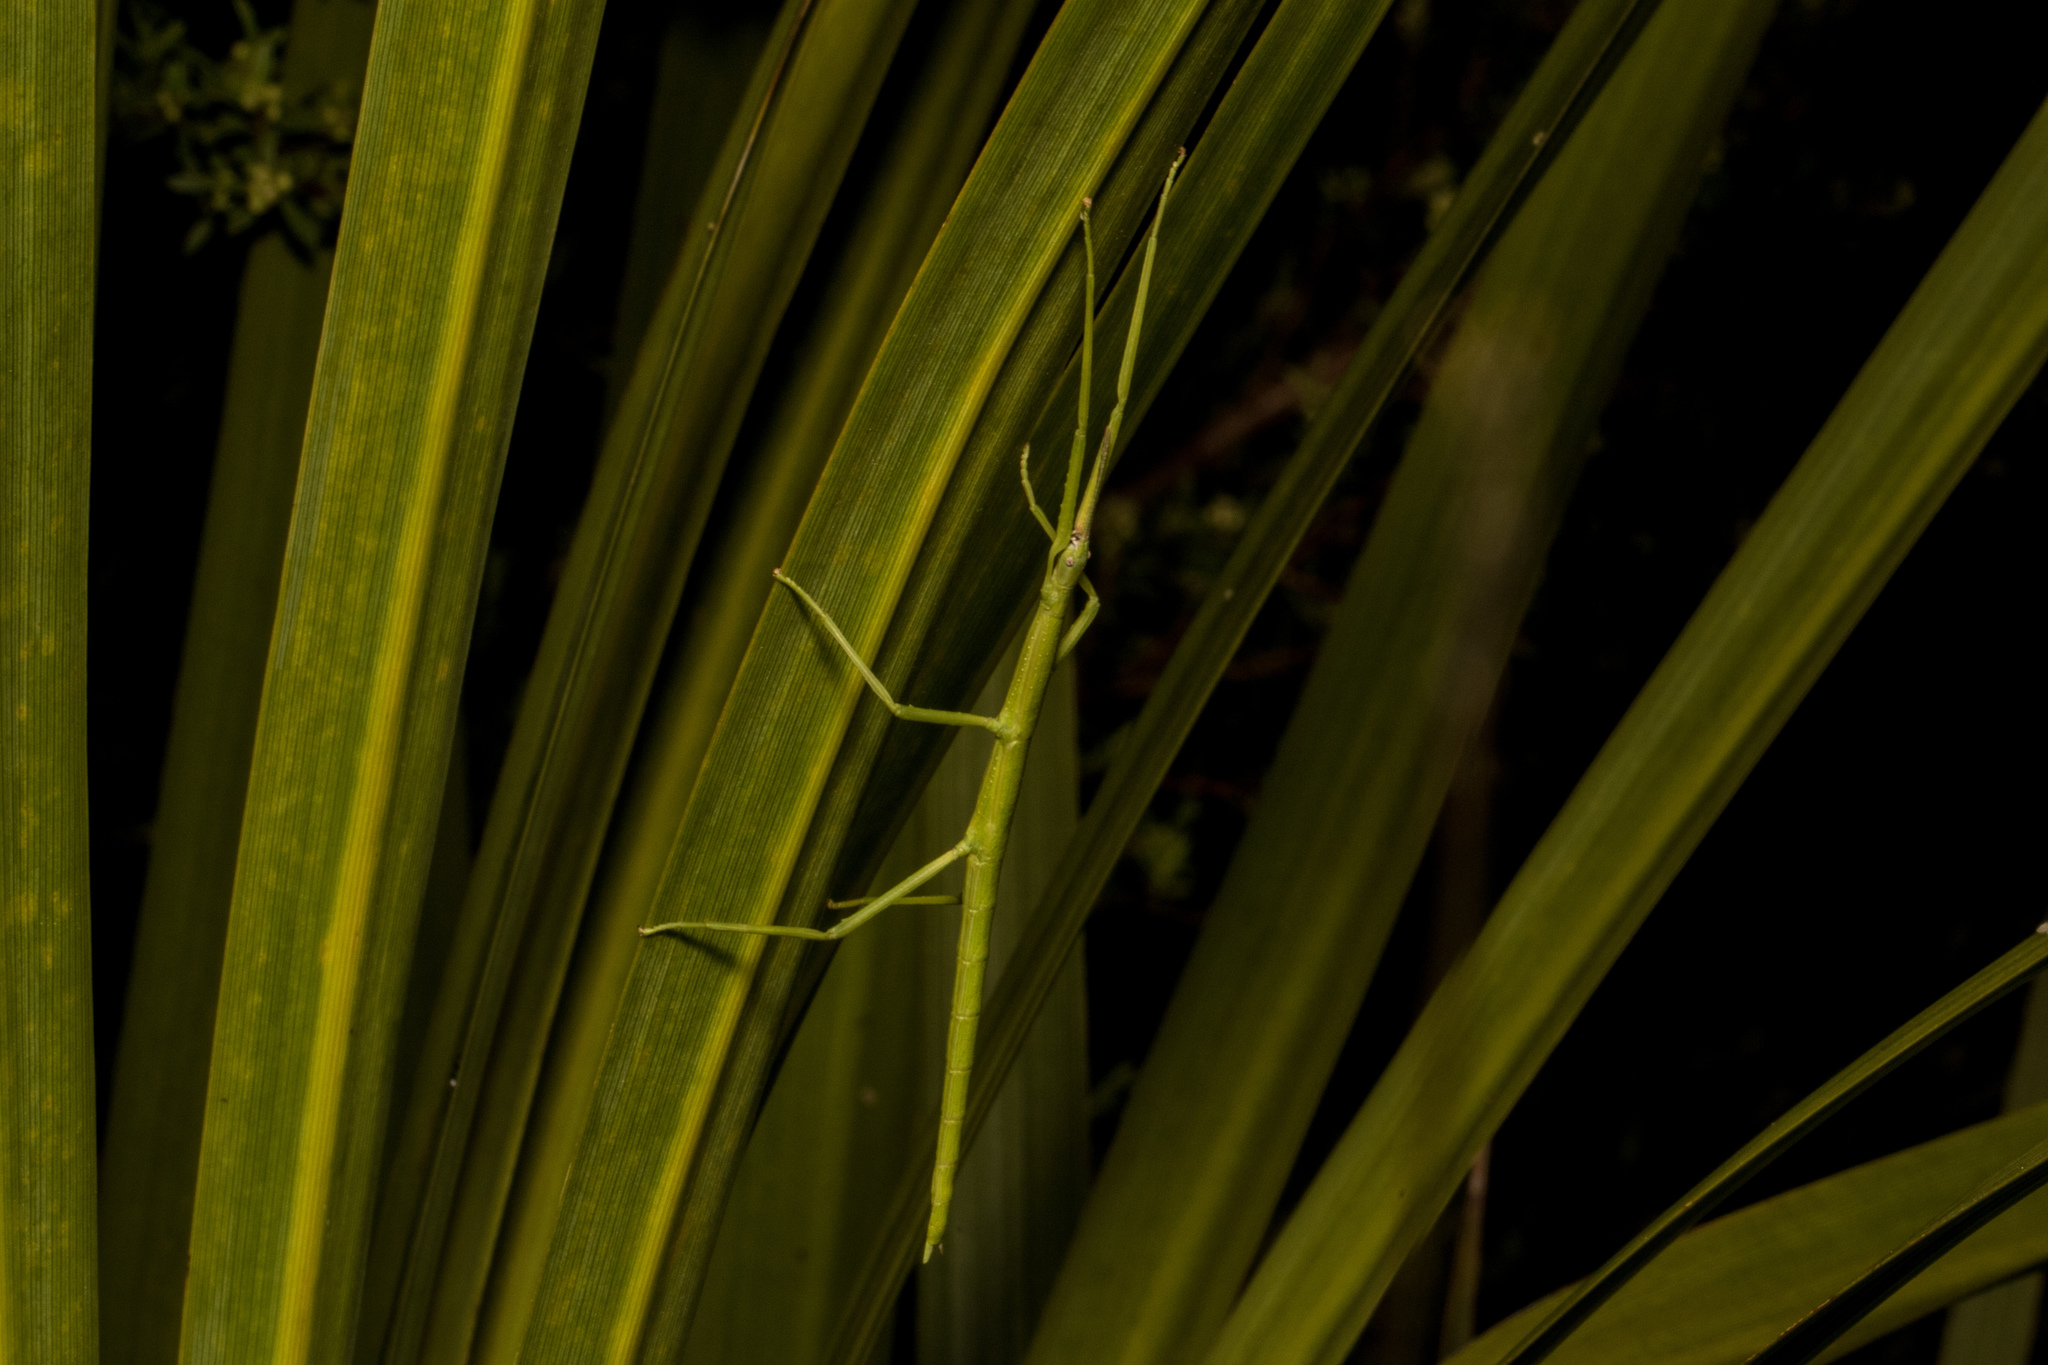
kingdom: Animalia
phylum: Arthropoda
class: Insecta
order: Phasmida
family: Phasmatidae
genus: Clitarchus
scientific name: Clitarchus hookeri
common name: Smooth stick insect
